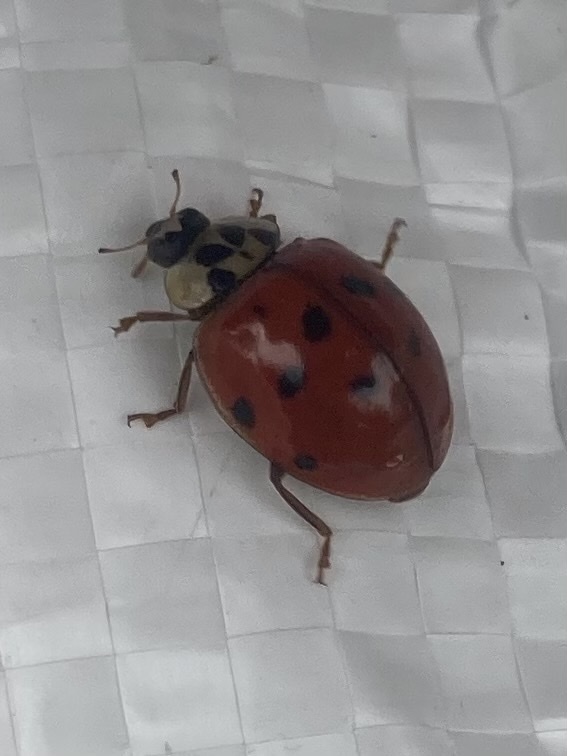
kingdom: Animalia
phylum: Arthropoda
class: Insecta
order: Coleoptera
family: Coccinellidae
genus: Harmonia
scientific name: Harmonia axyridis
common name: Harlequin ladybird
